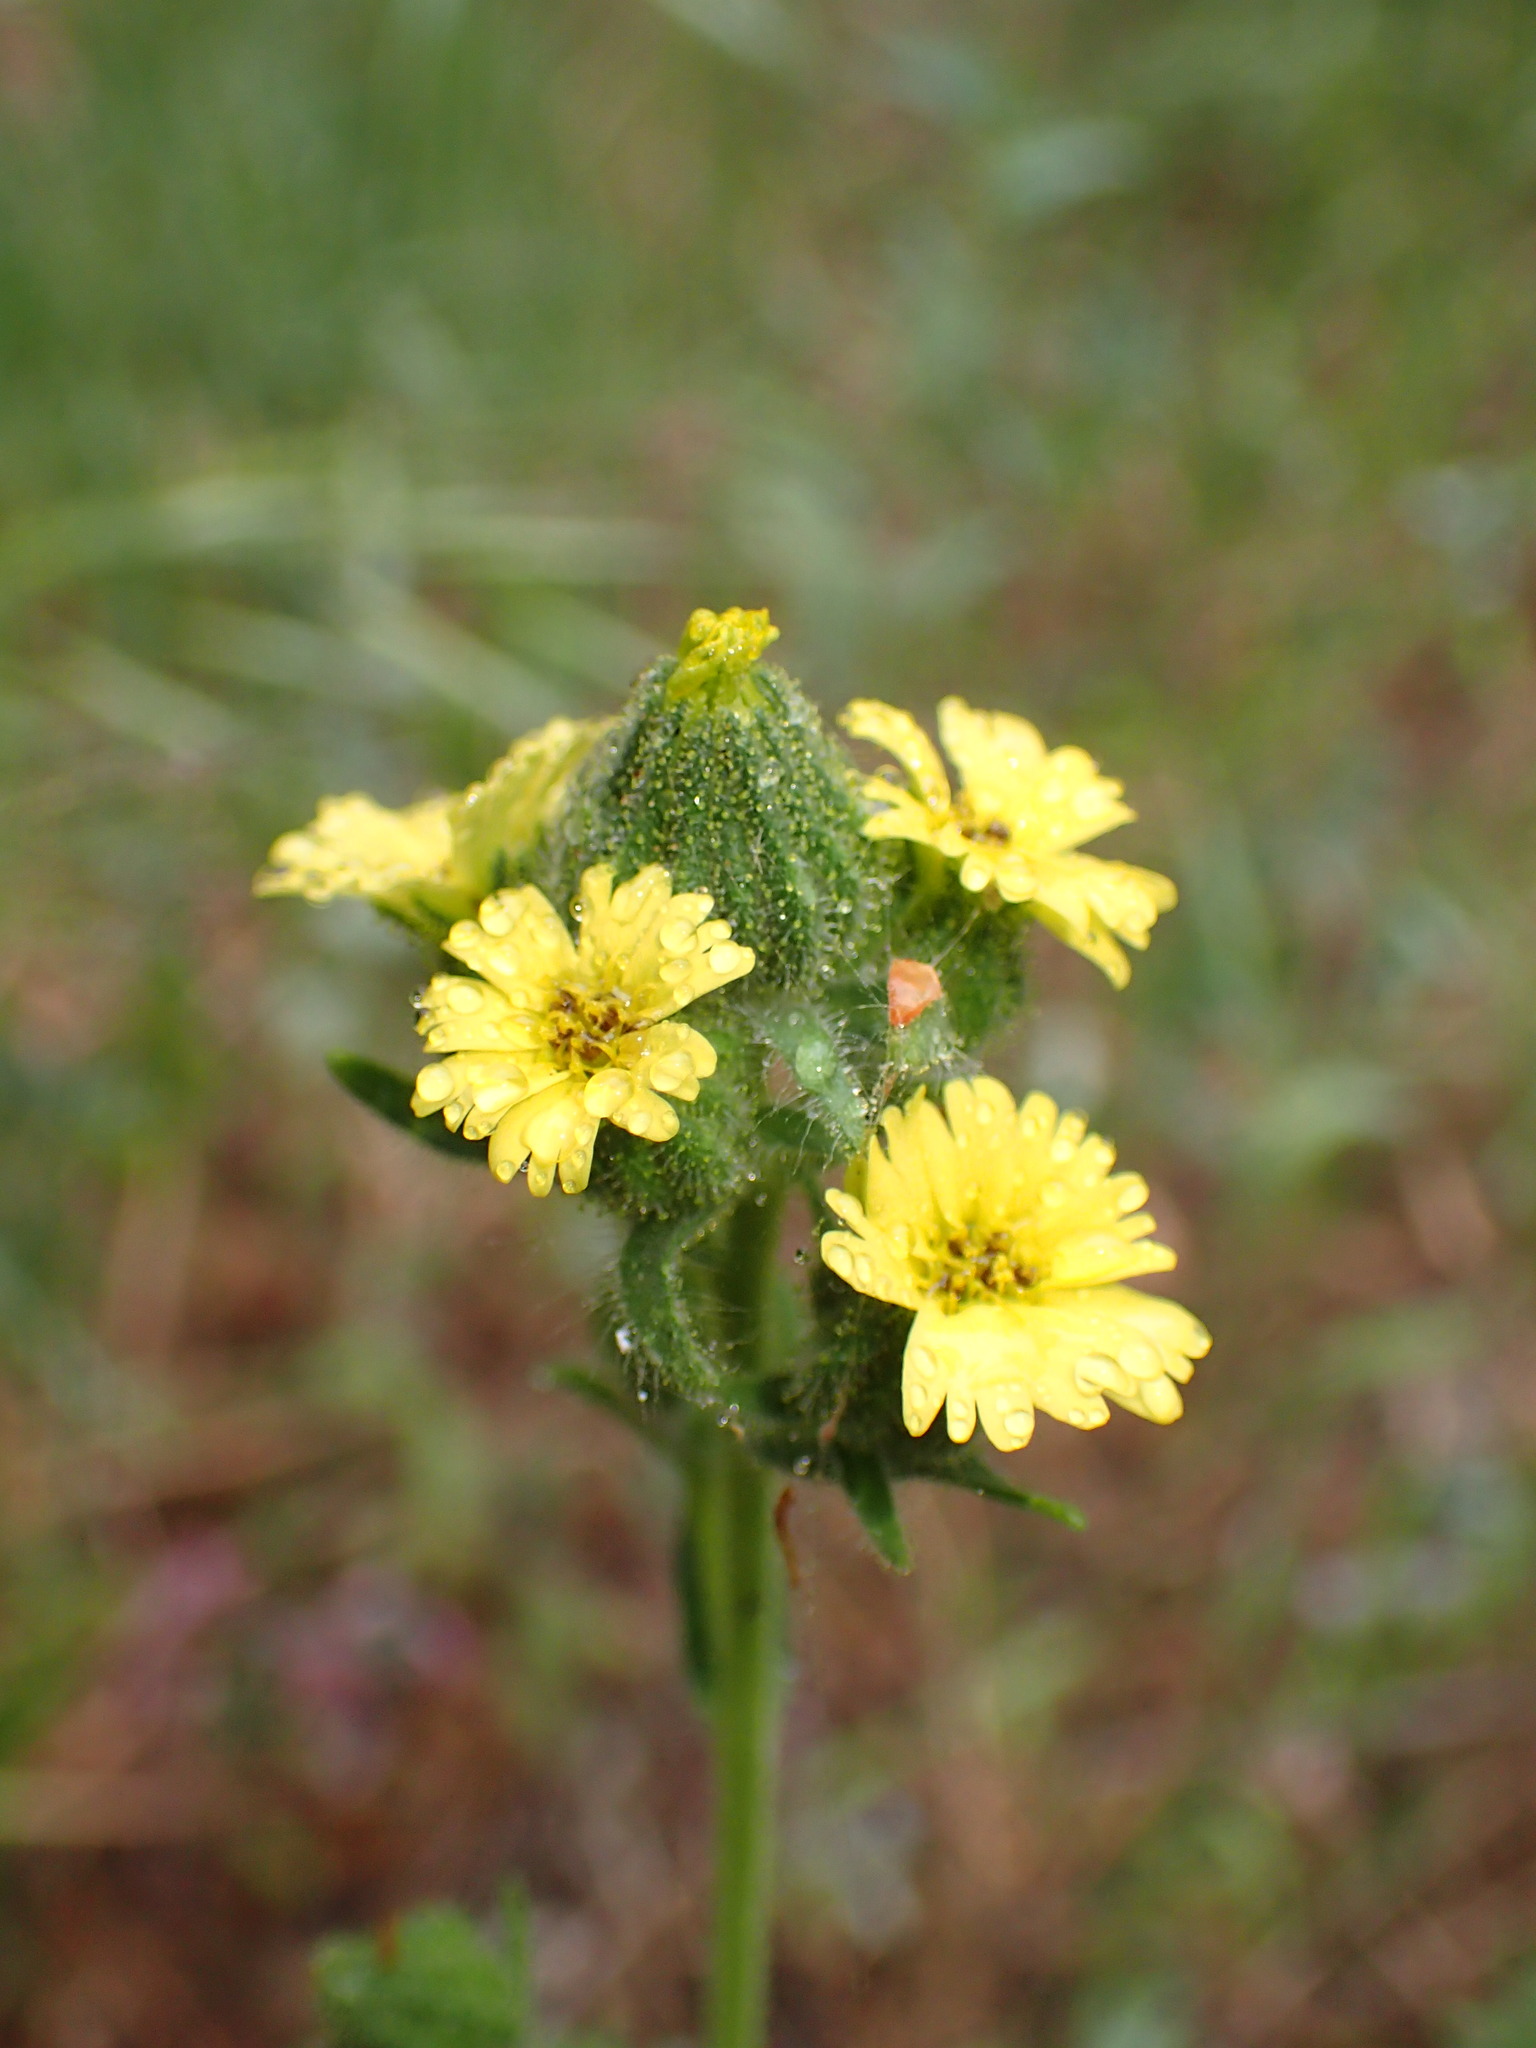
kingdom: Plantae
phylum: Tracheophyta
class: Magnoliopsida
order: Asterales
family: Asteraceae
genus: Madia
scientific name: Madia gracilis
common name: Grassy tarweed
